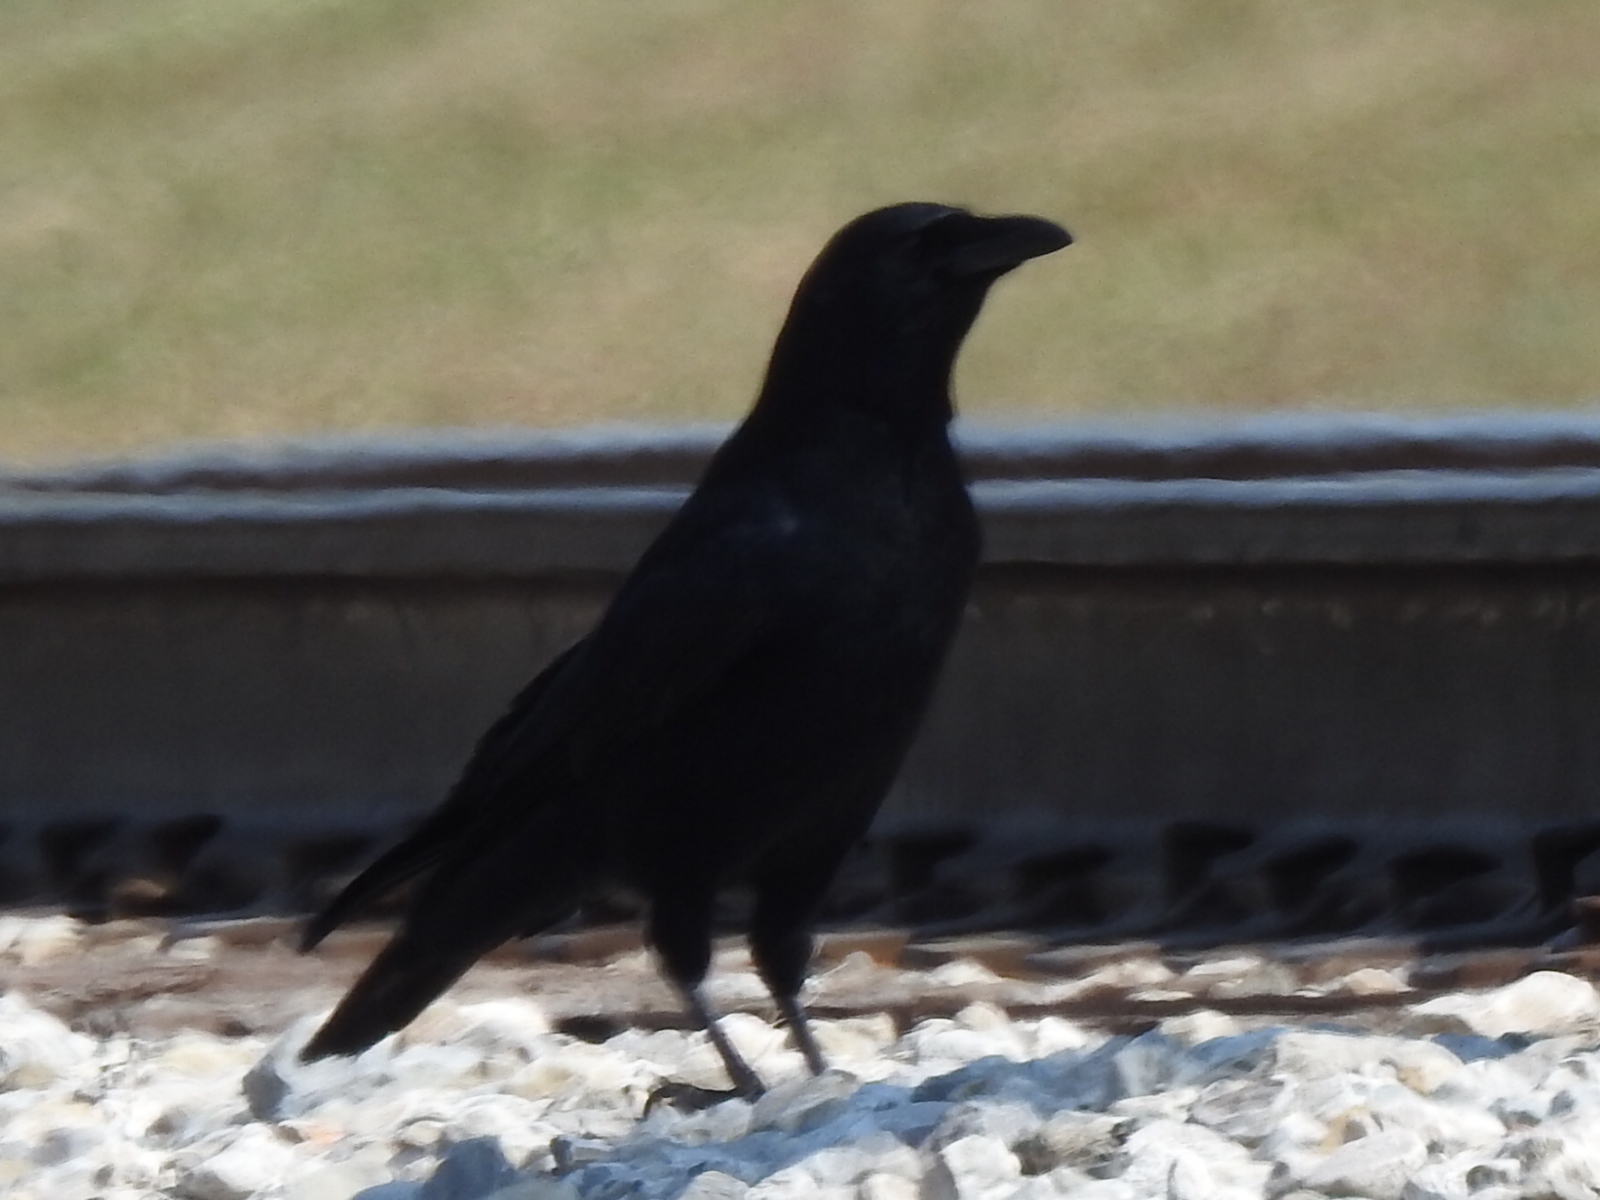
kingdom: Animalia
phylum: Chordata
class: Aves
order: Passeriformes
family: Corvidae
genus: Corvus
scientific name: Corvus brachyrhynchos
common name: American crow
